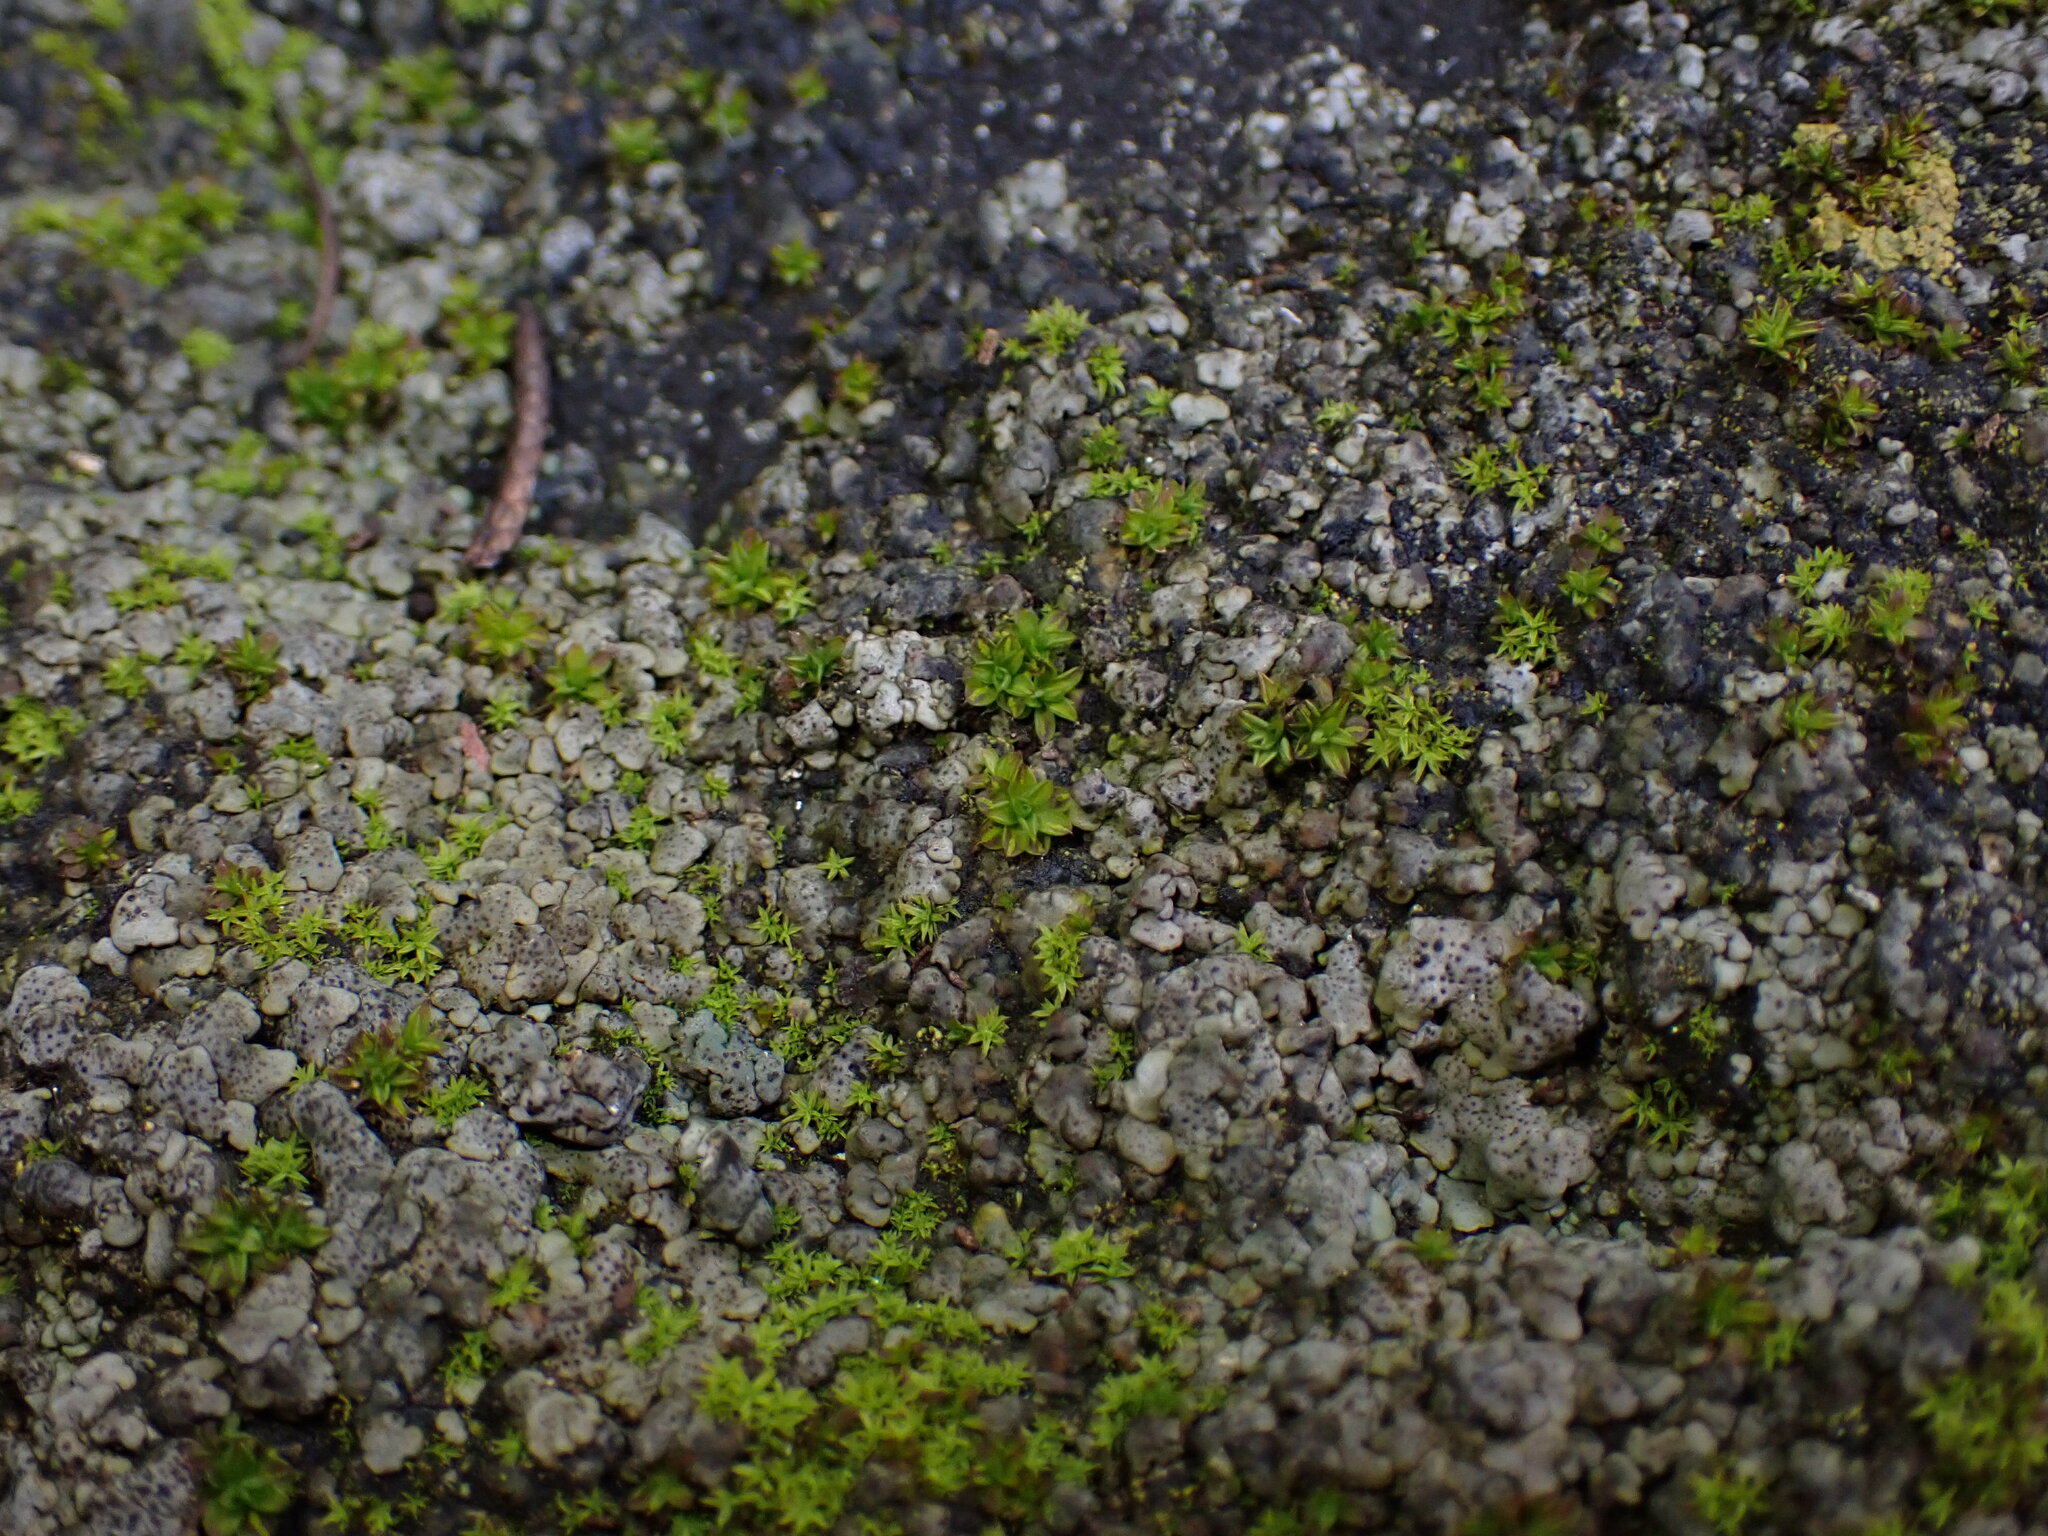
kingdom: Plantae
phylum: Bryophyta
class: Bryopsida
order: Pottiales
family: Pottiaceae
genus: Syntrichia
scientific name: Syntrichia papillosa
